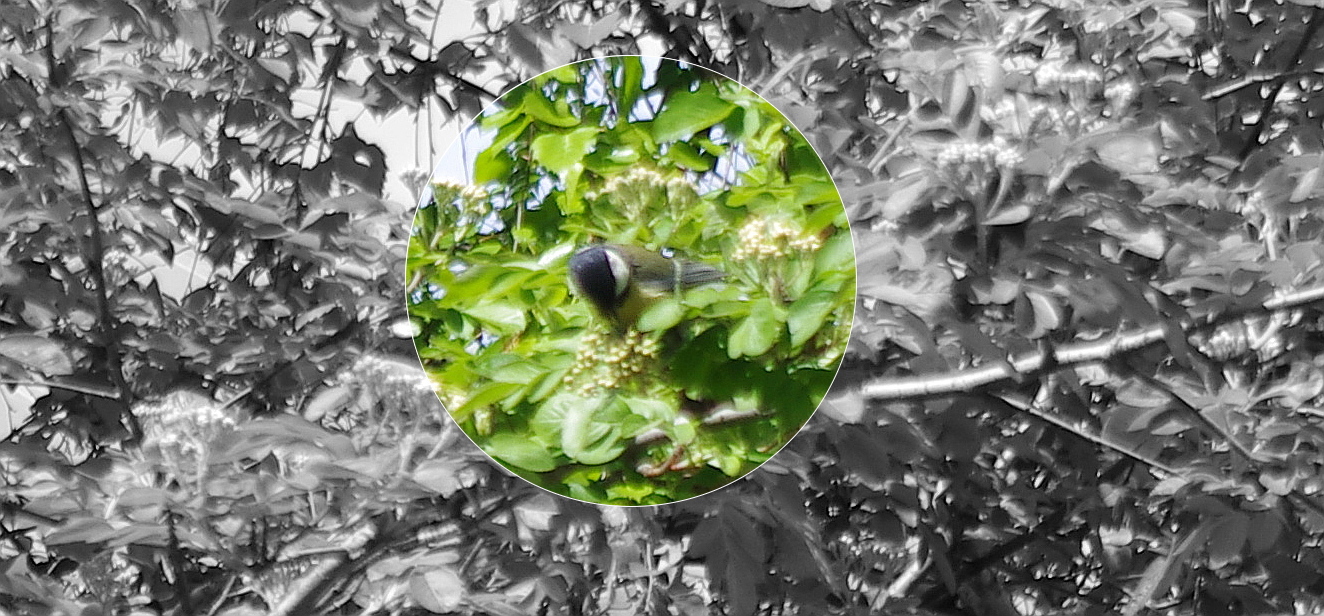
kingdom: Animalia
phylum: Chordata
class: Aves
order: Passeriformes
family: Paridae
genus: Parus
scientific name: Parus major
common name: Great tit
